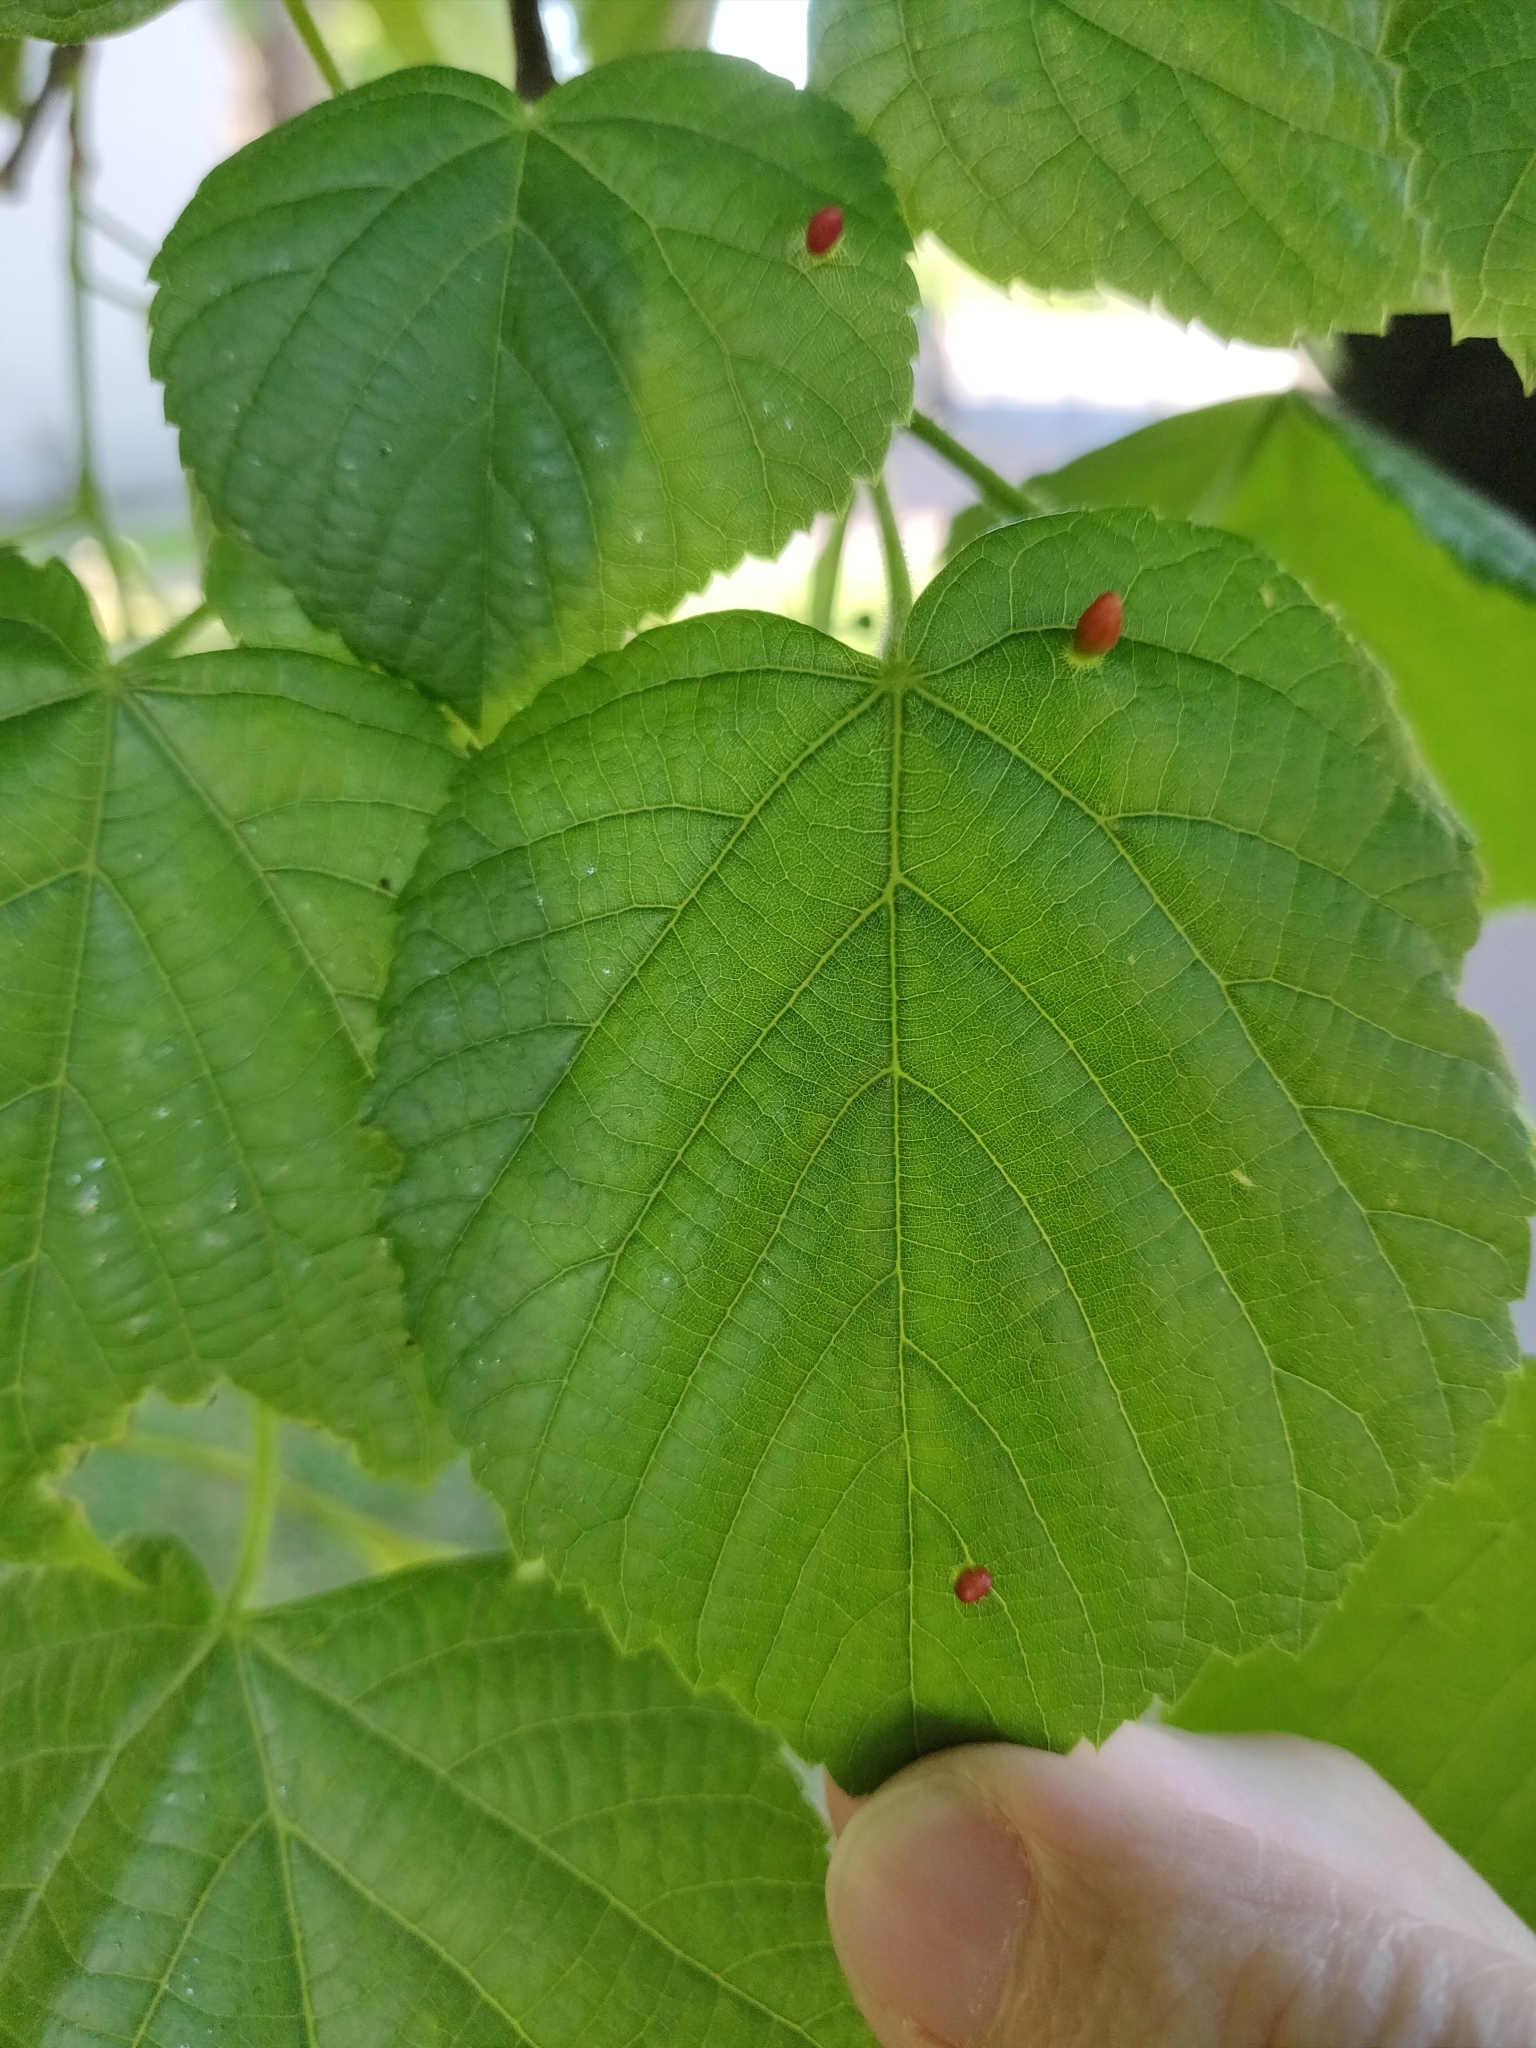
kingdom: Animalia
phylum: Arthropoda
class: Arachnida
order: Trombidiformes
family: Eriophyidae
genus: Eriophyes
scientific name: Eriophyes tiliae
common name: Red nail gall mite
